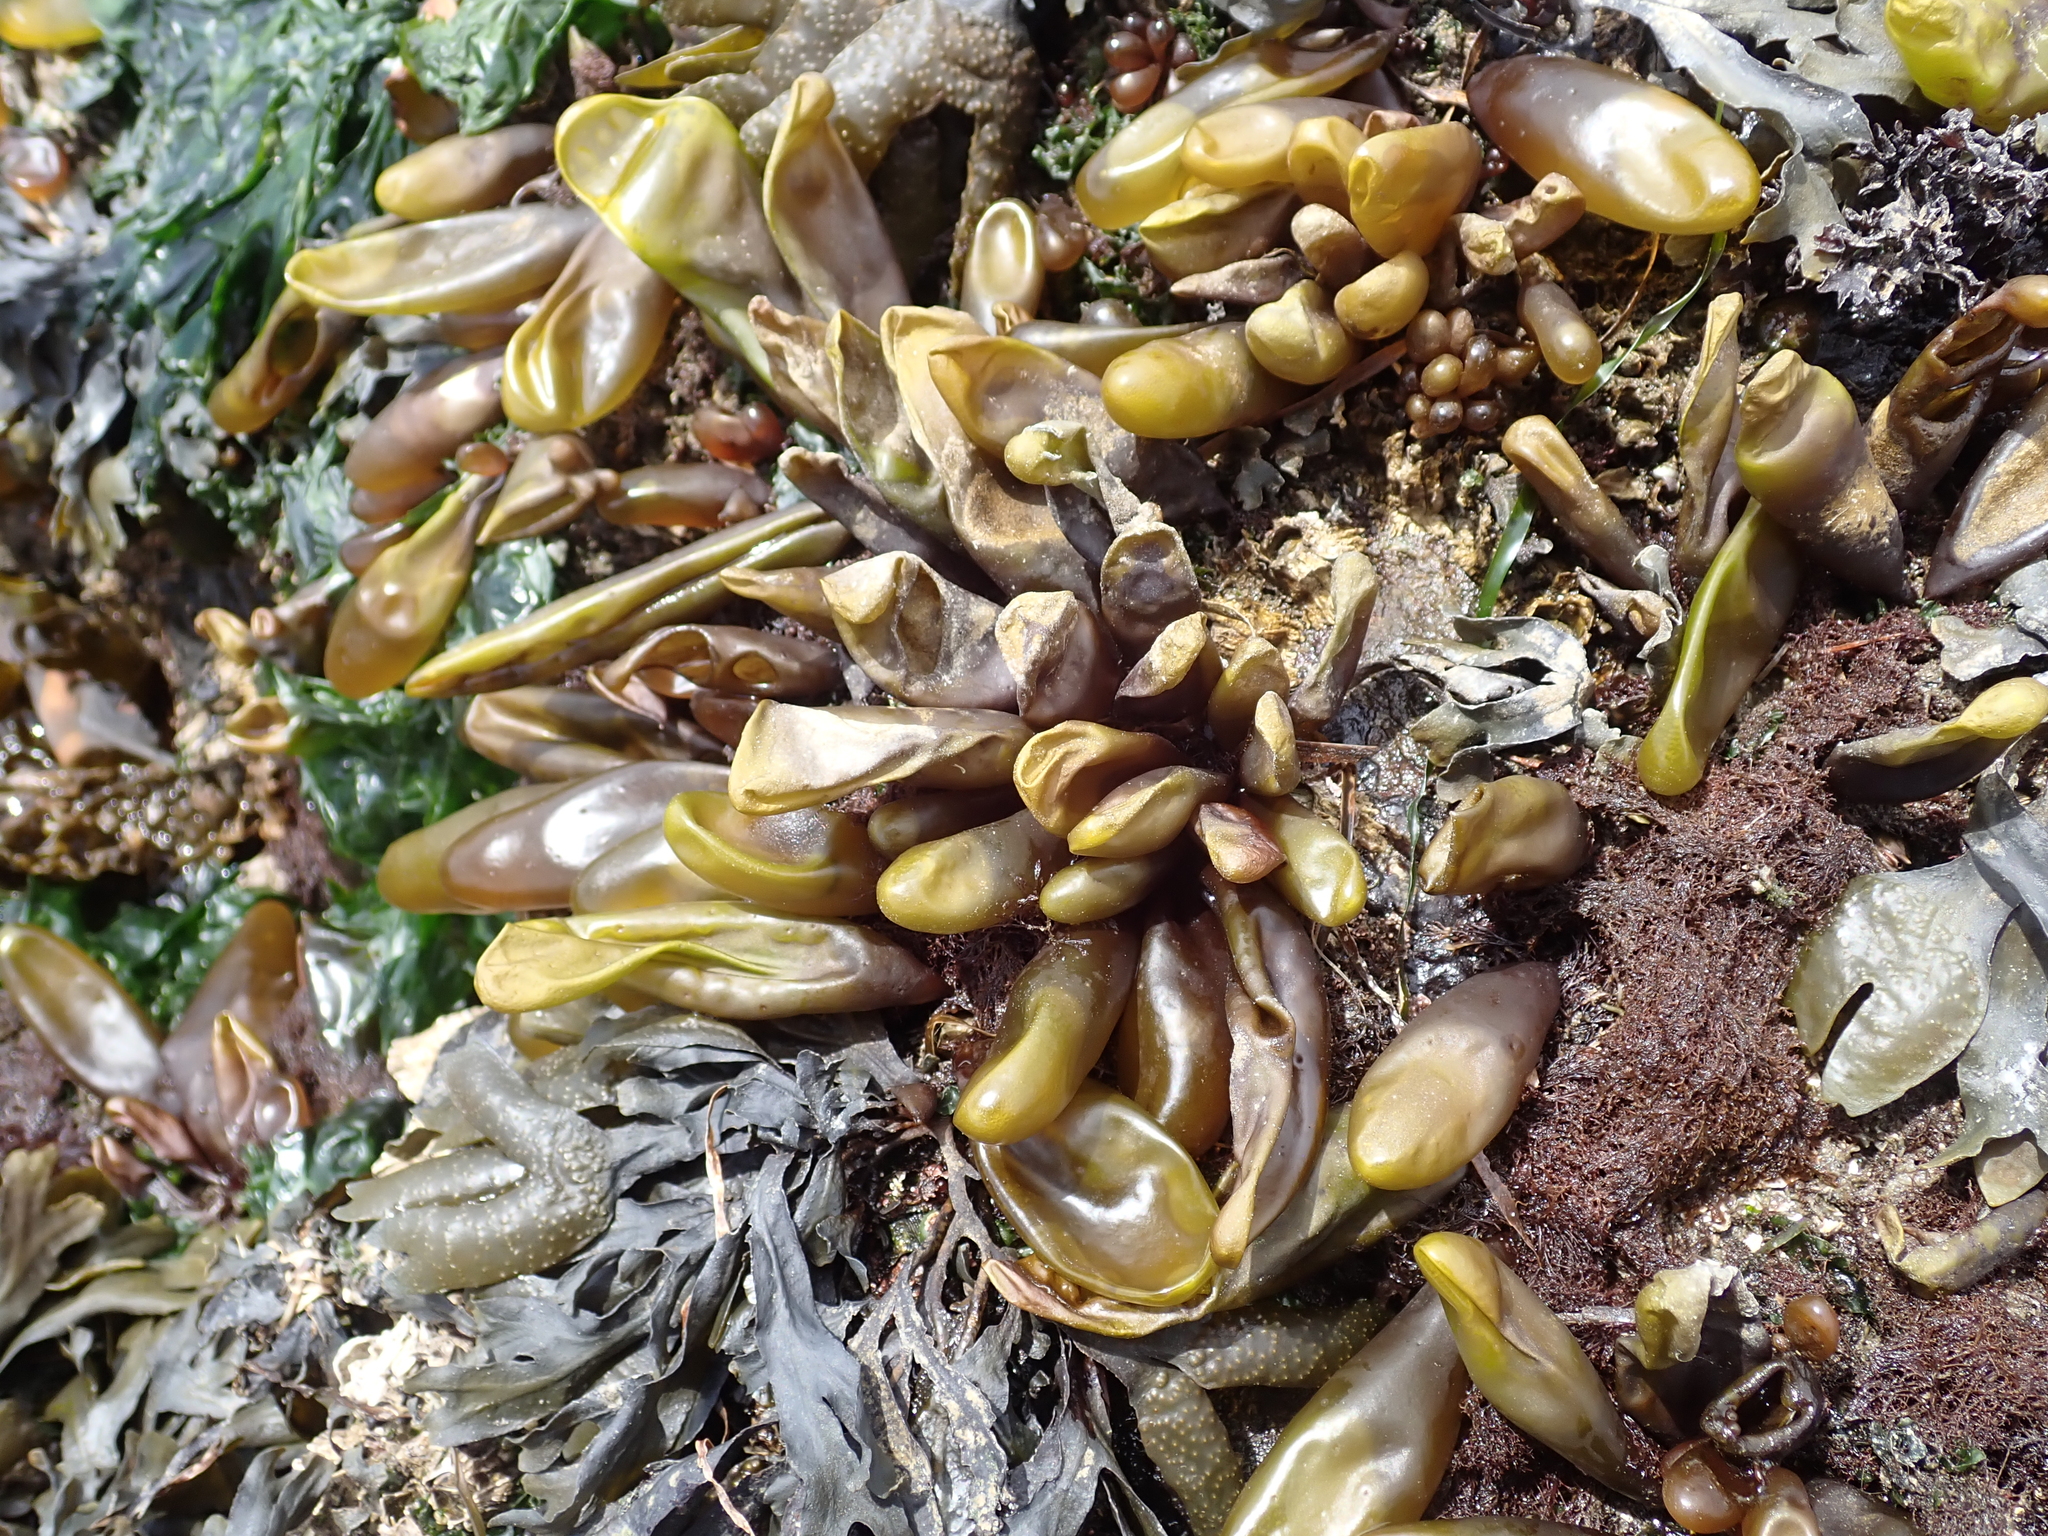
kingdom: Plantae
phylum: Rhodophyta
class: Florideophyceae
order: Palmariales
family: Palmariaceae
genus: Halosaccion
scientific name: Halosaccion glandiforme
